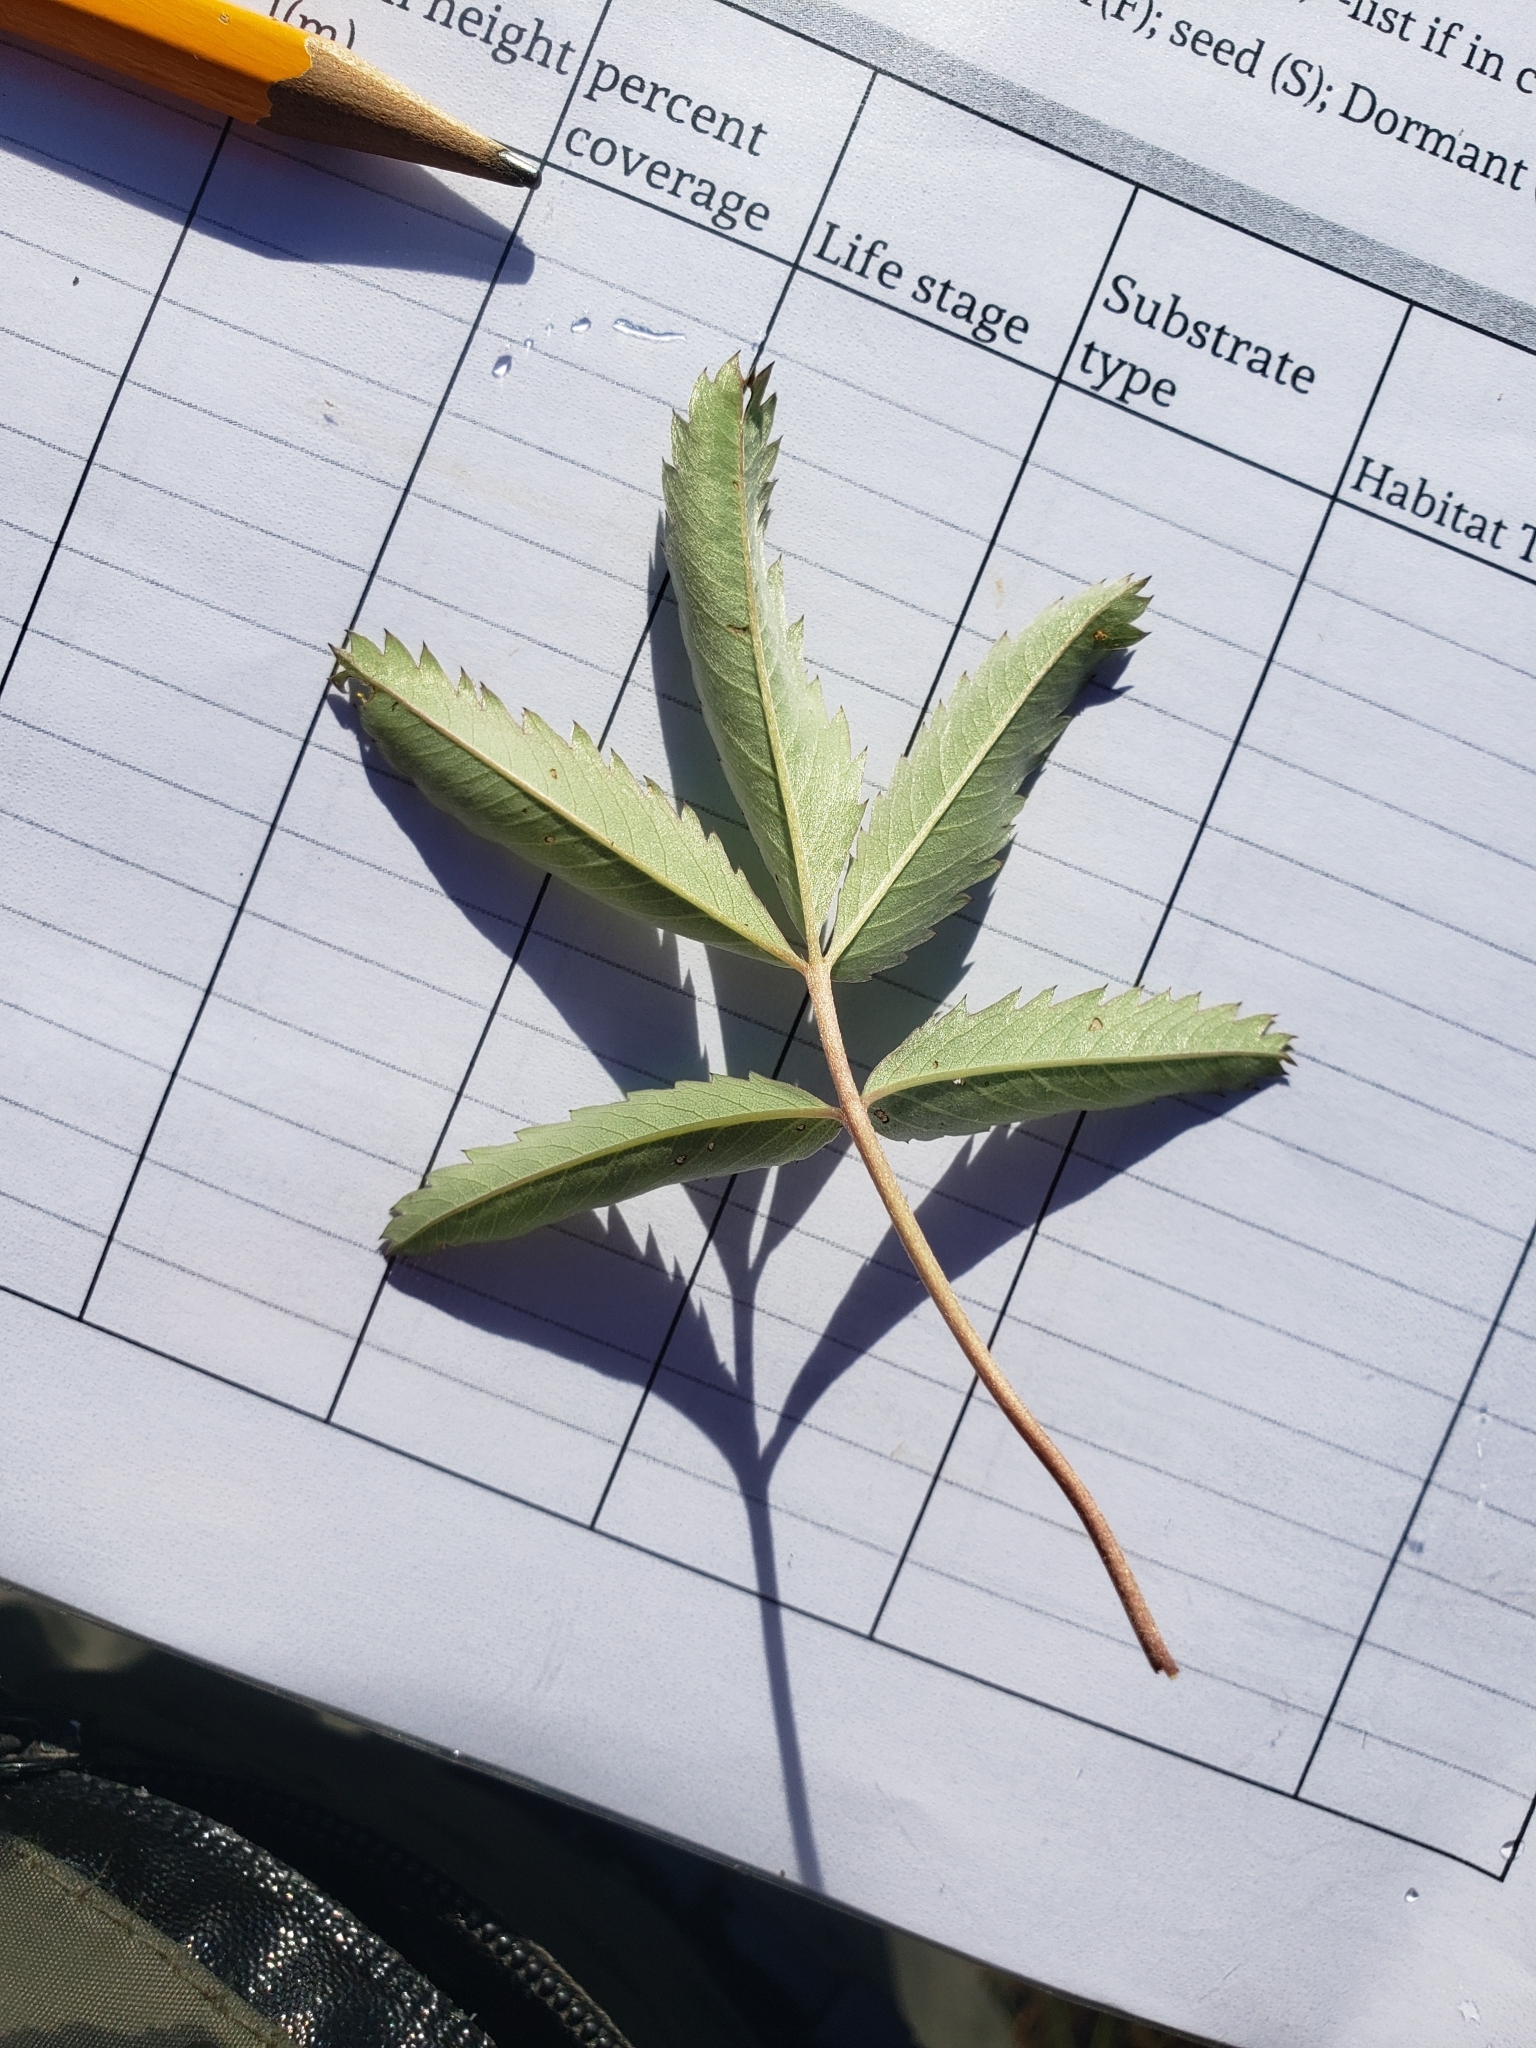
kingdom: Plantae
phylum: Tracheophyta
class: Magnoliopsida
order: Rosales
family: Rosaceae
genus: Comarum
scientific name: Comarum palustre
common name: Marsh cinquefoil
